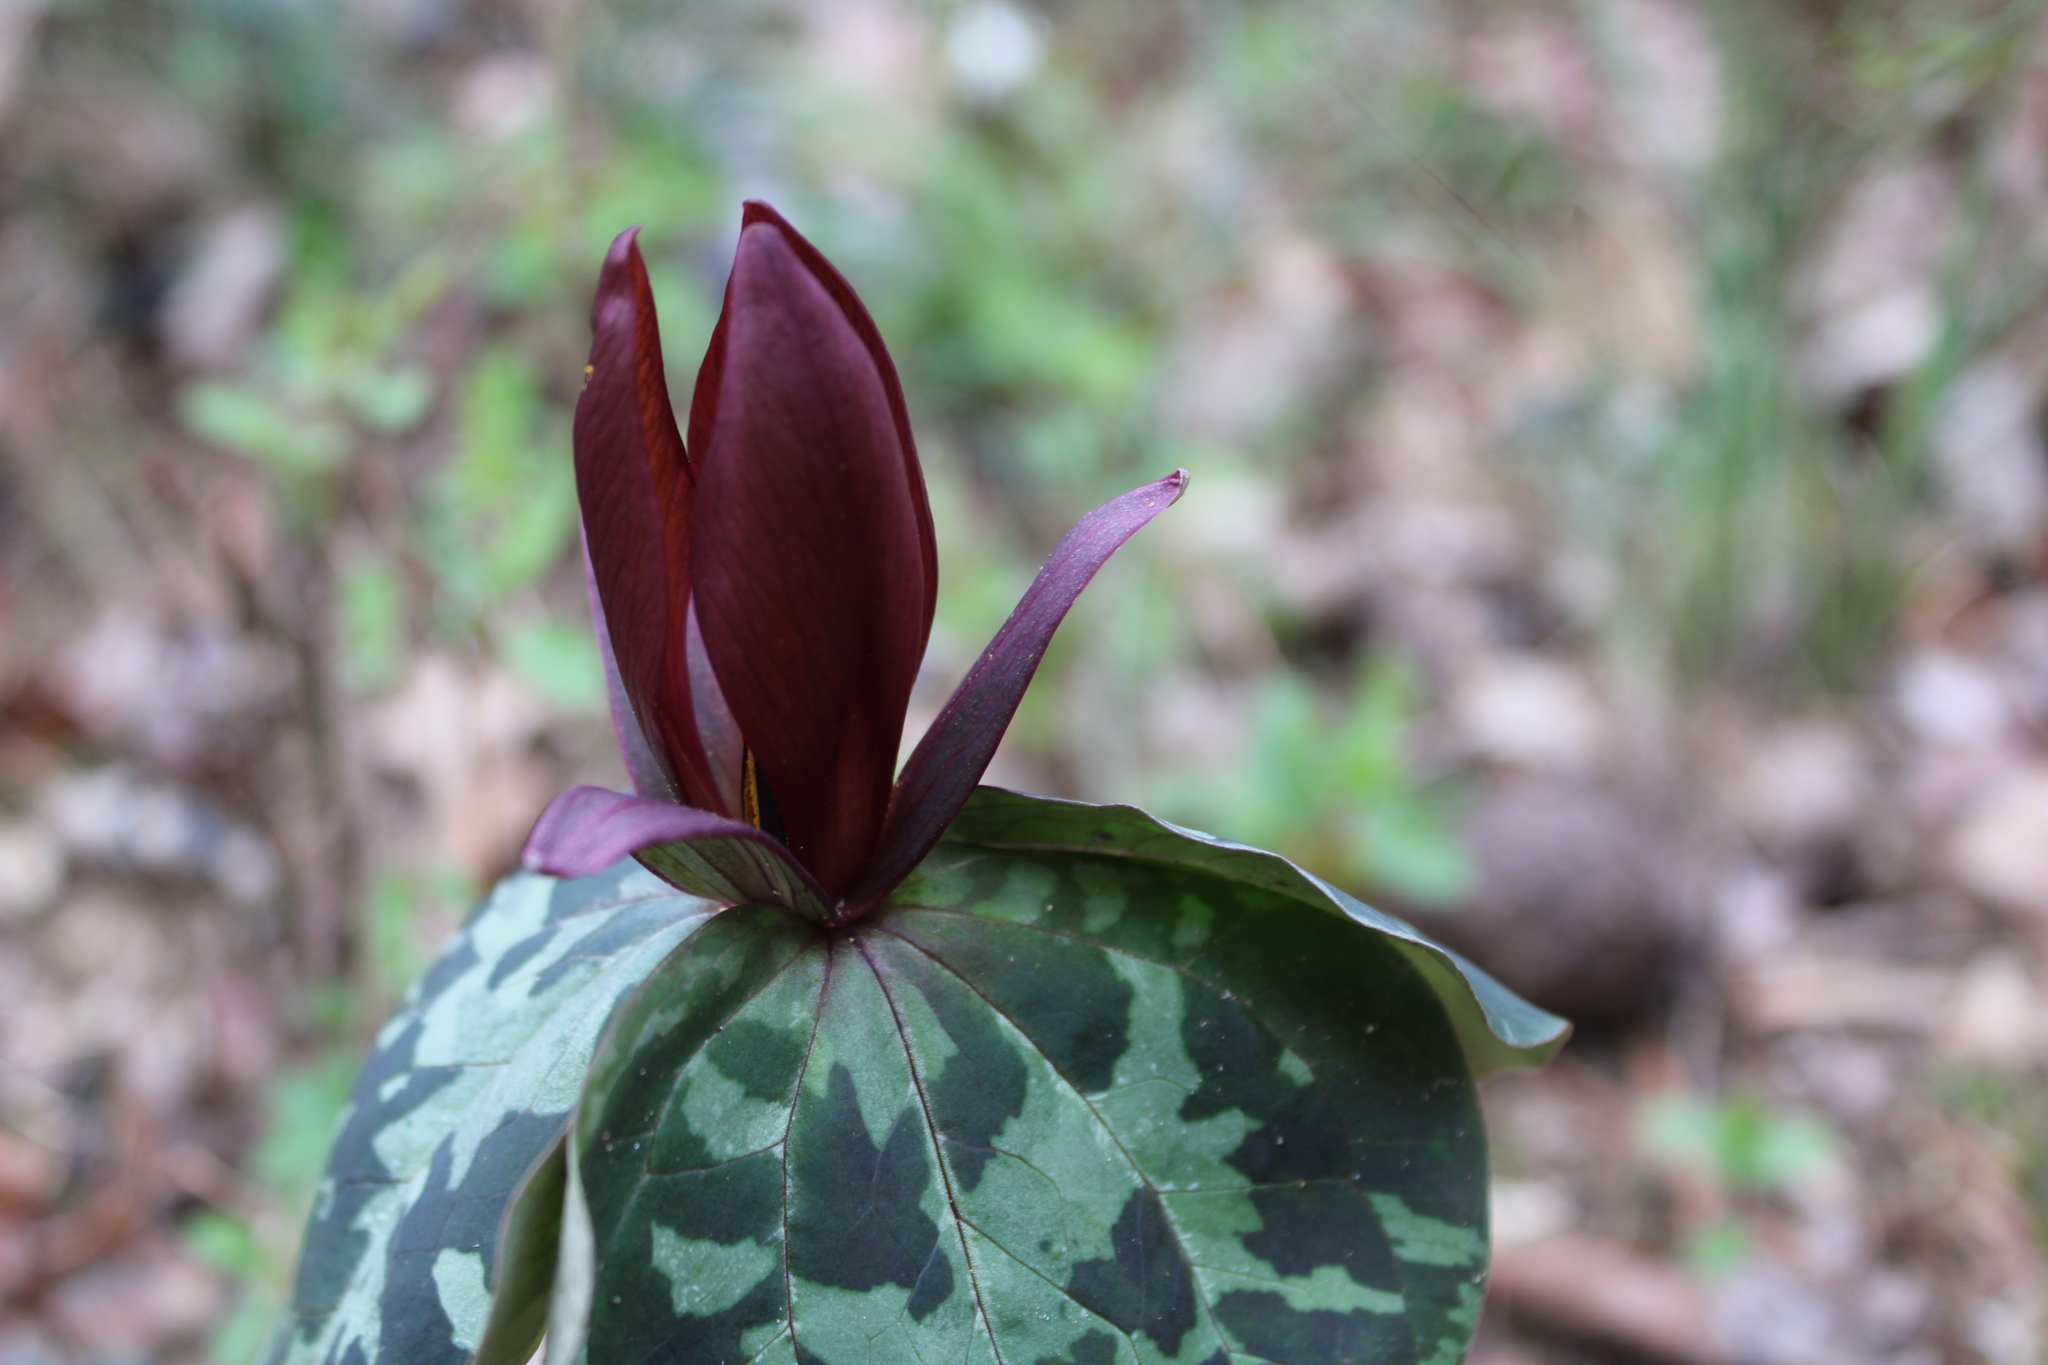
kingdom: Plantae
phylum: Tracheophyta
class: Liliopsida
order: Liliales
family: Melanthiaceae
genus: Trillium
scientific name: Trillium cuneatum
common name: Cuneate trillium
